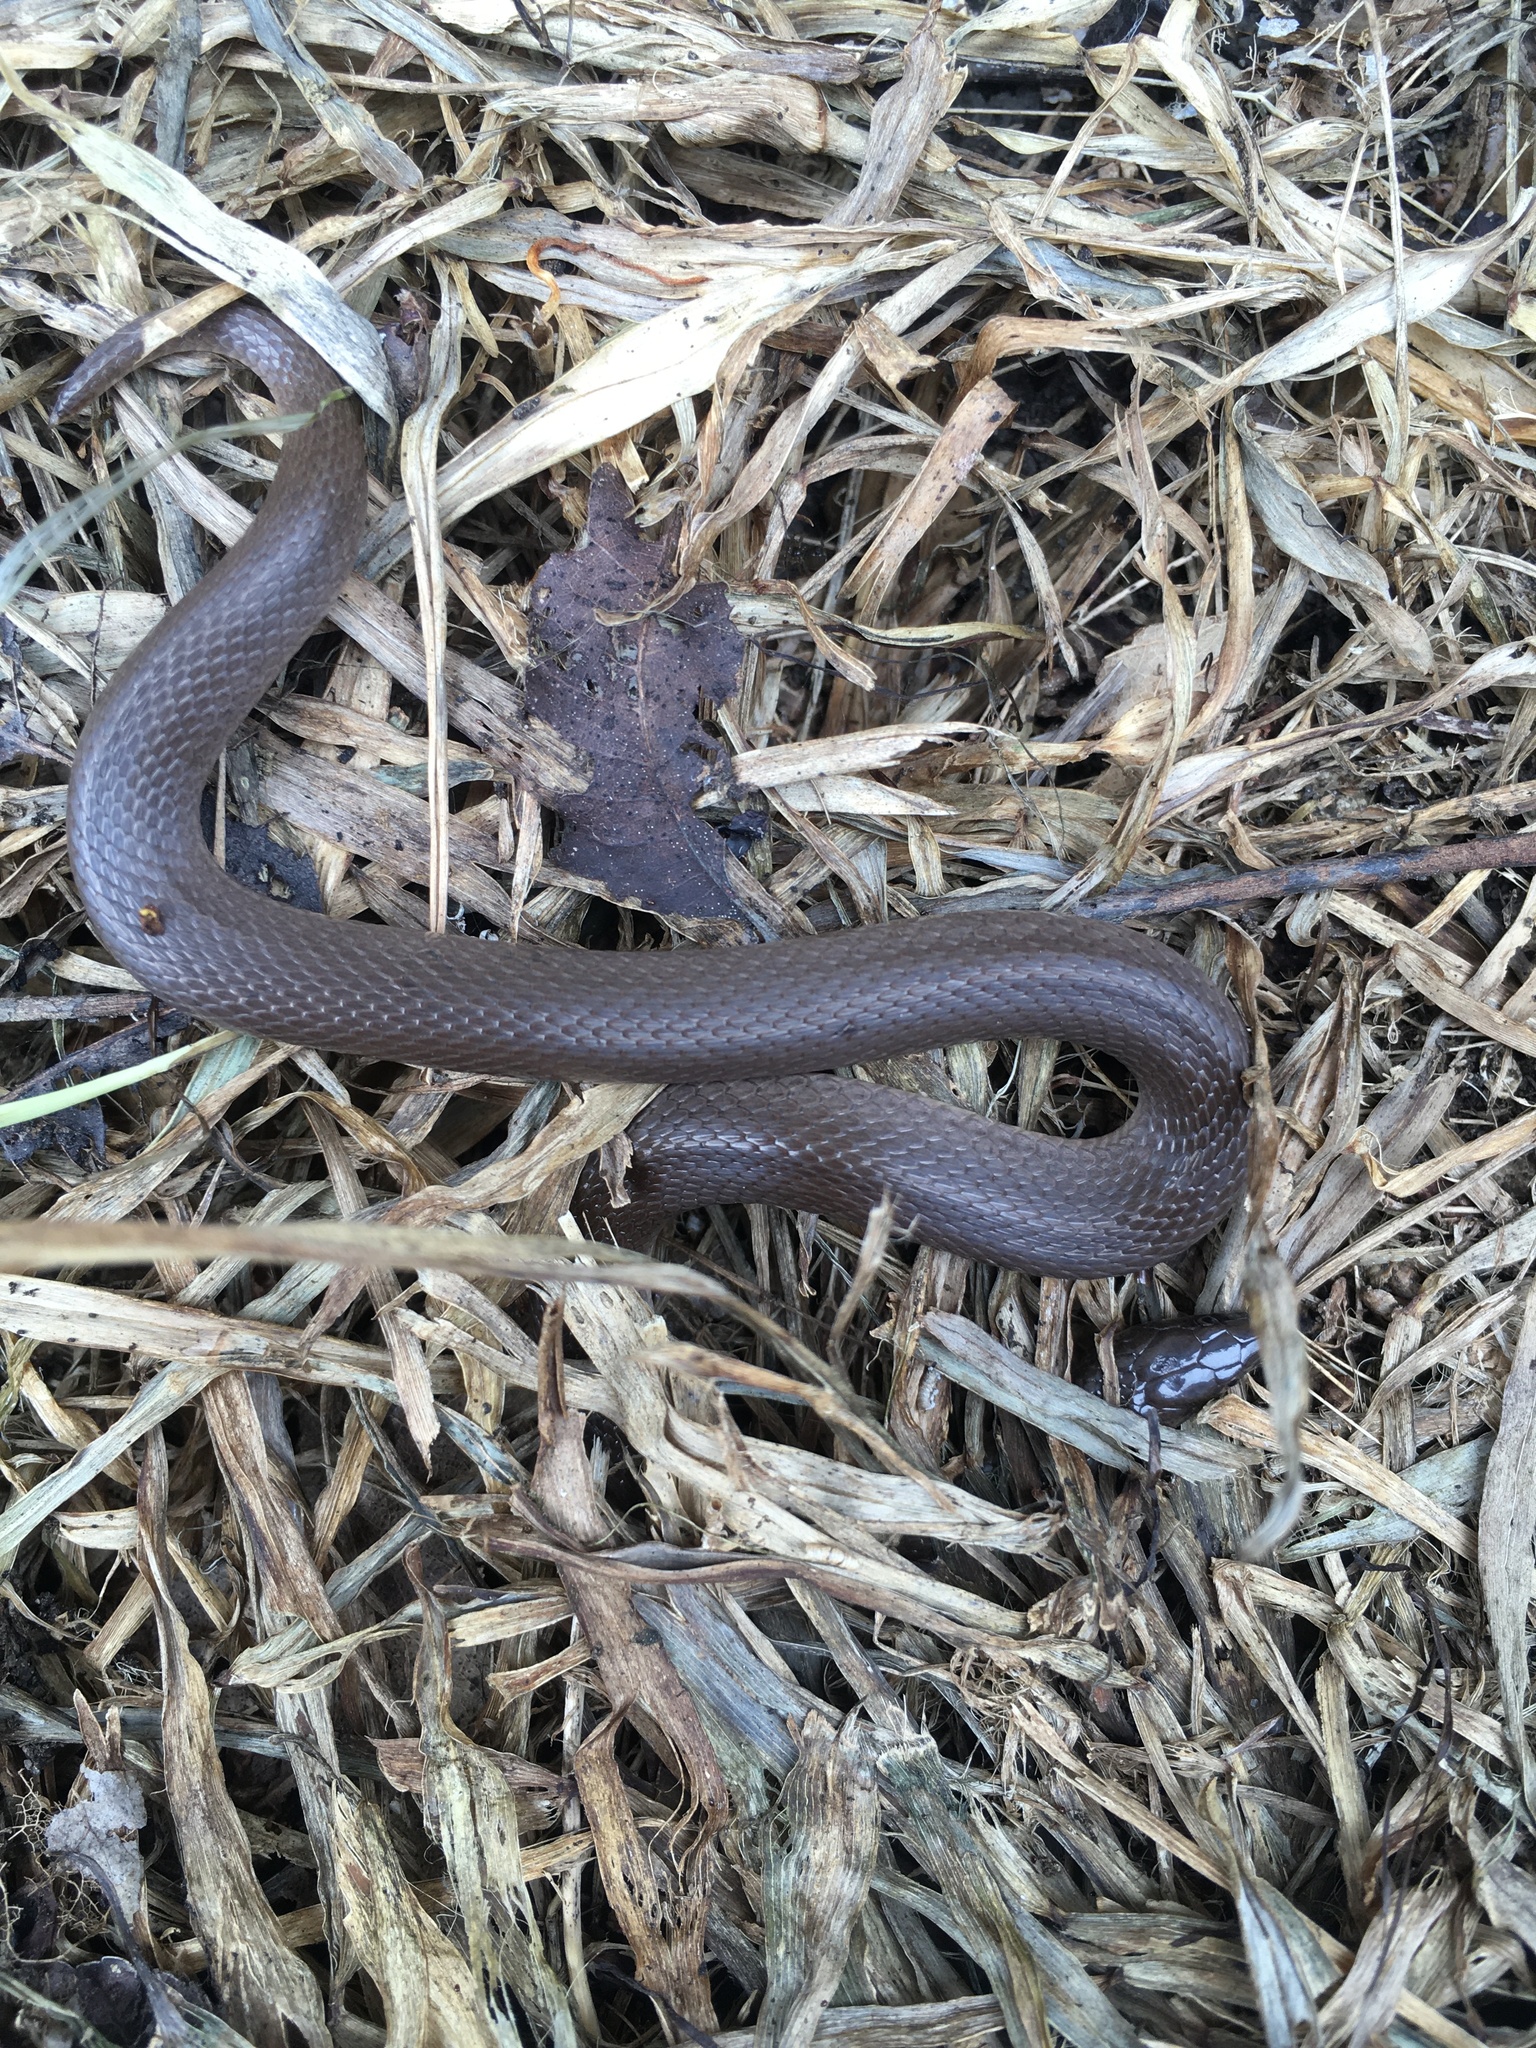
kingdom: Animalia
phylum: Chordata
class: Squamata
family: Colubridae
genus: Haldea
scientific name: Haldea striatula
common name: Rough earth snake
